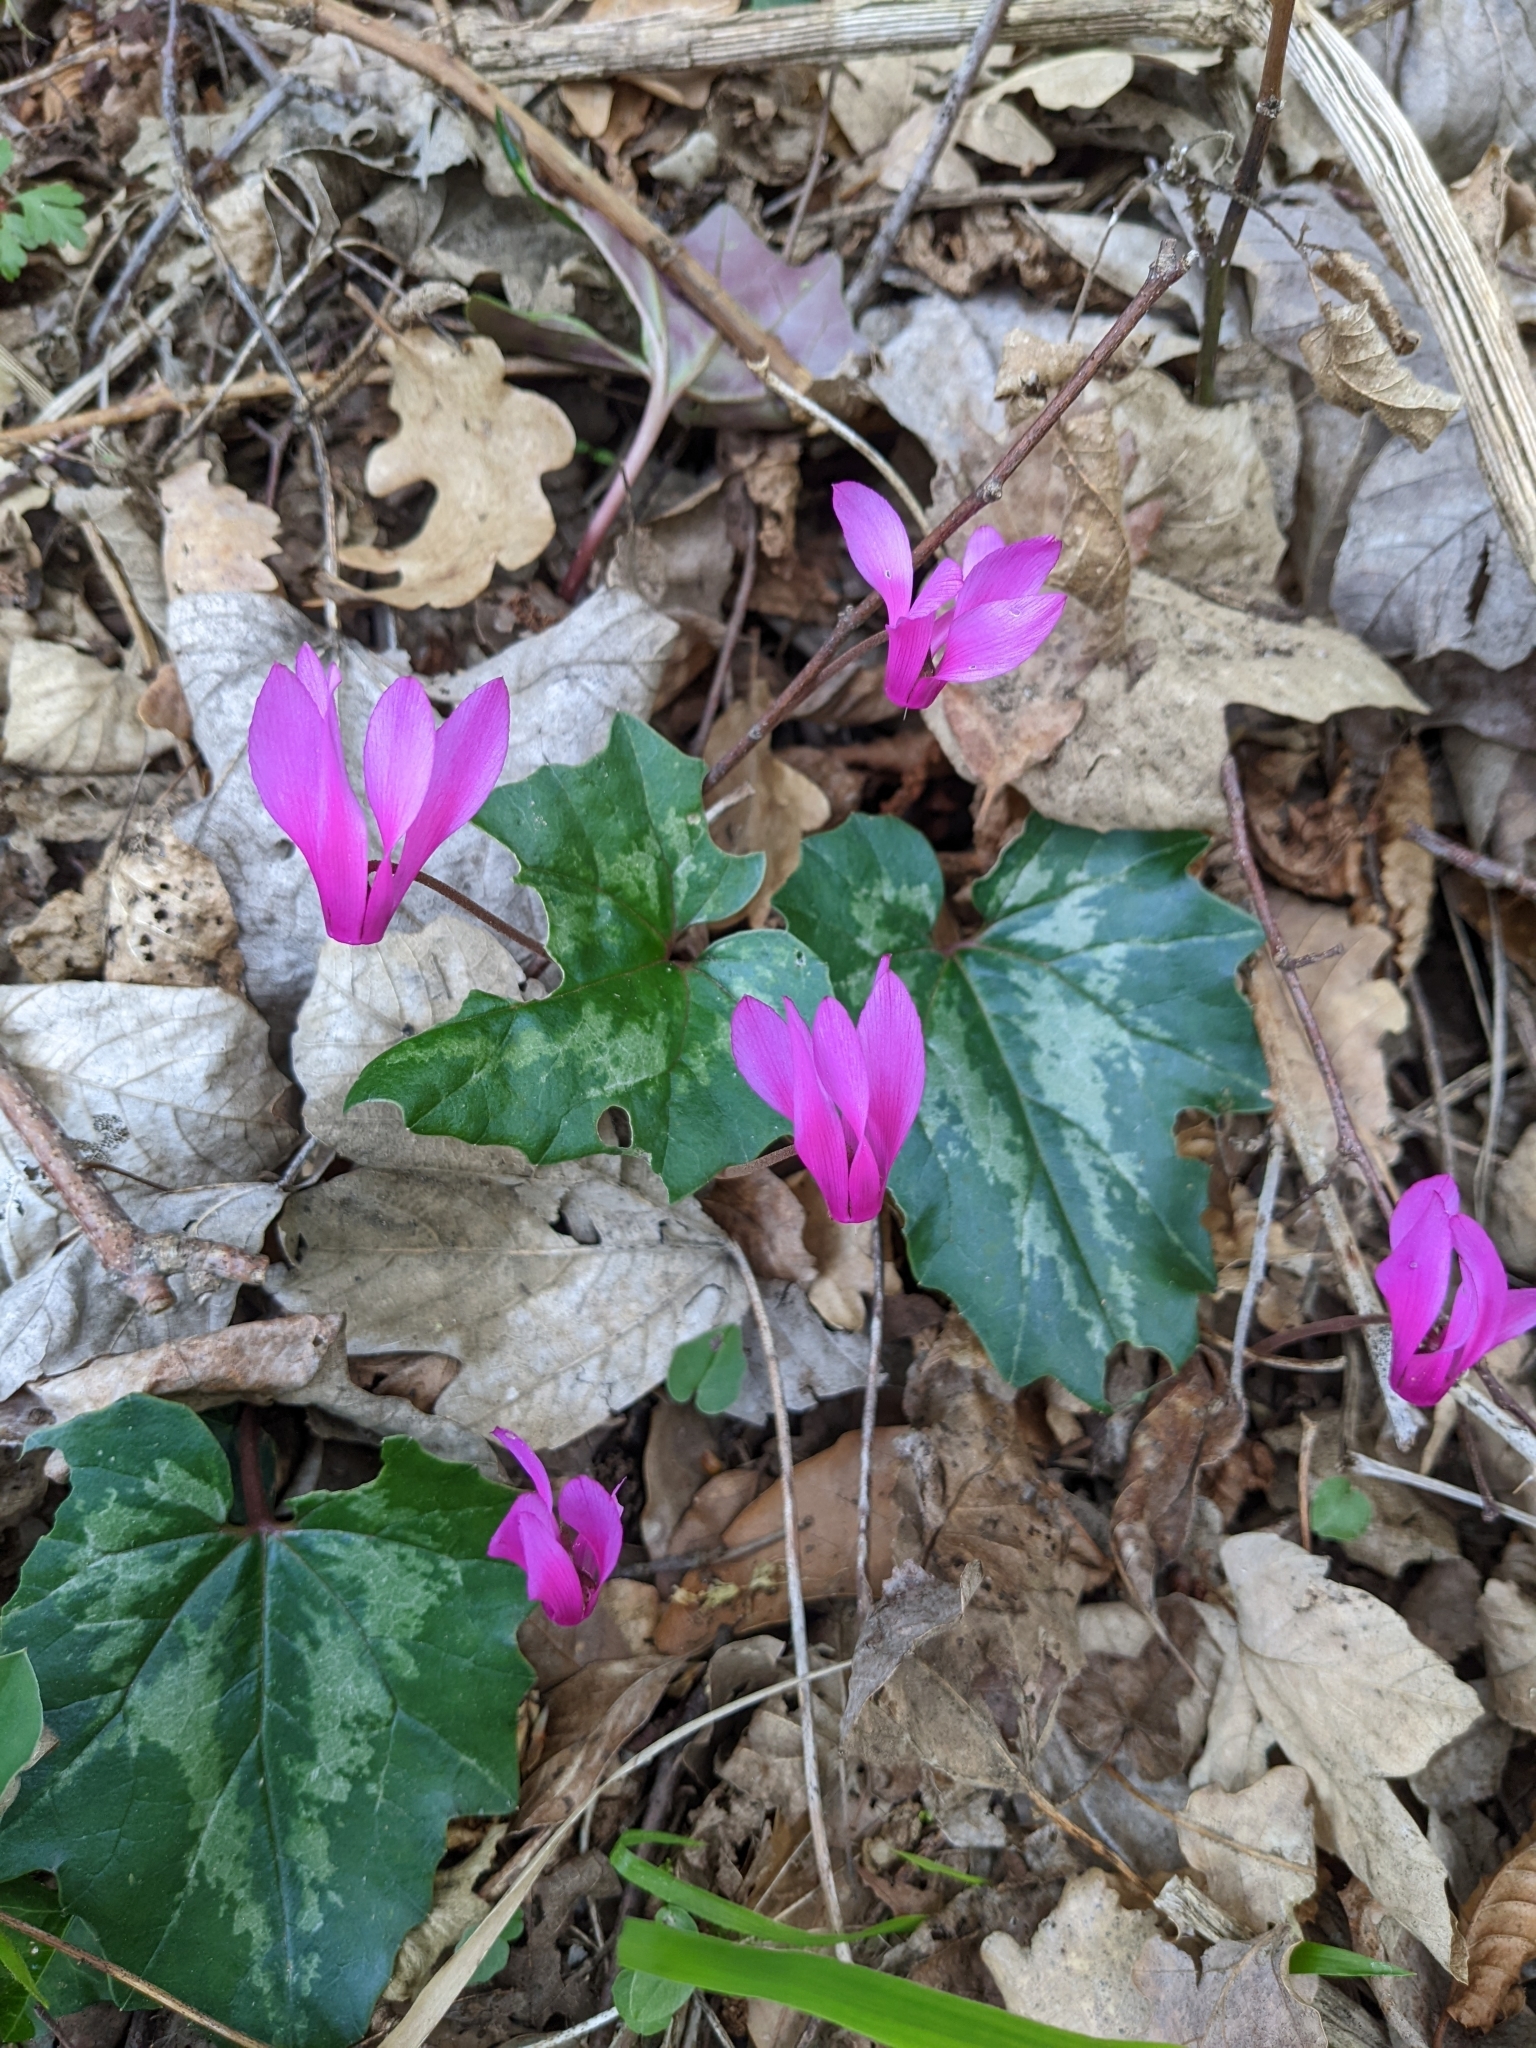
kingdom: Plantae
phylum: Tracheophyta
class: Magnoliopsida
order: Ericales
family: Primulaceae
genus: Cyclamen
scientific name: Cyclamen repandum
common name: Spring sowbread
